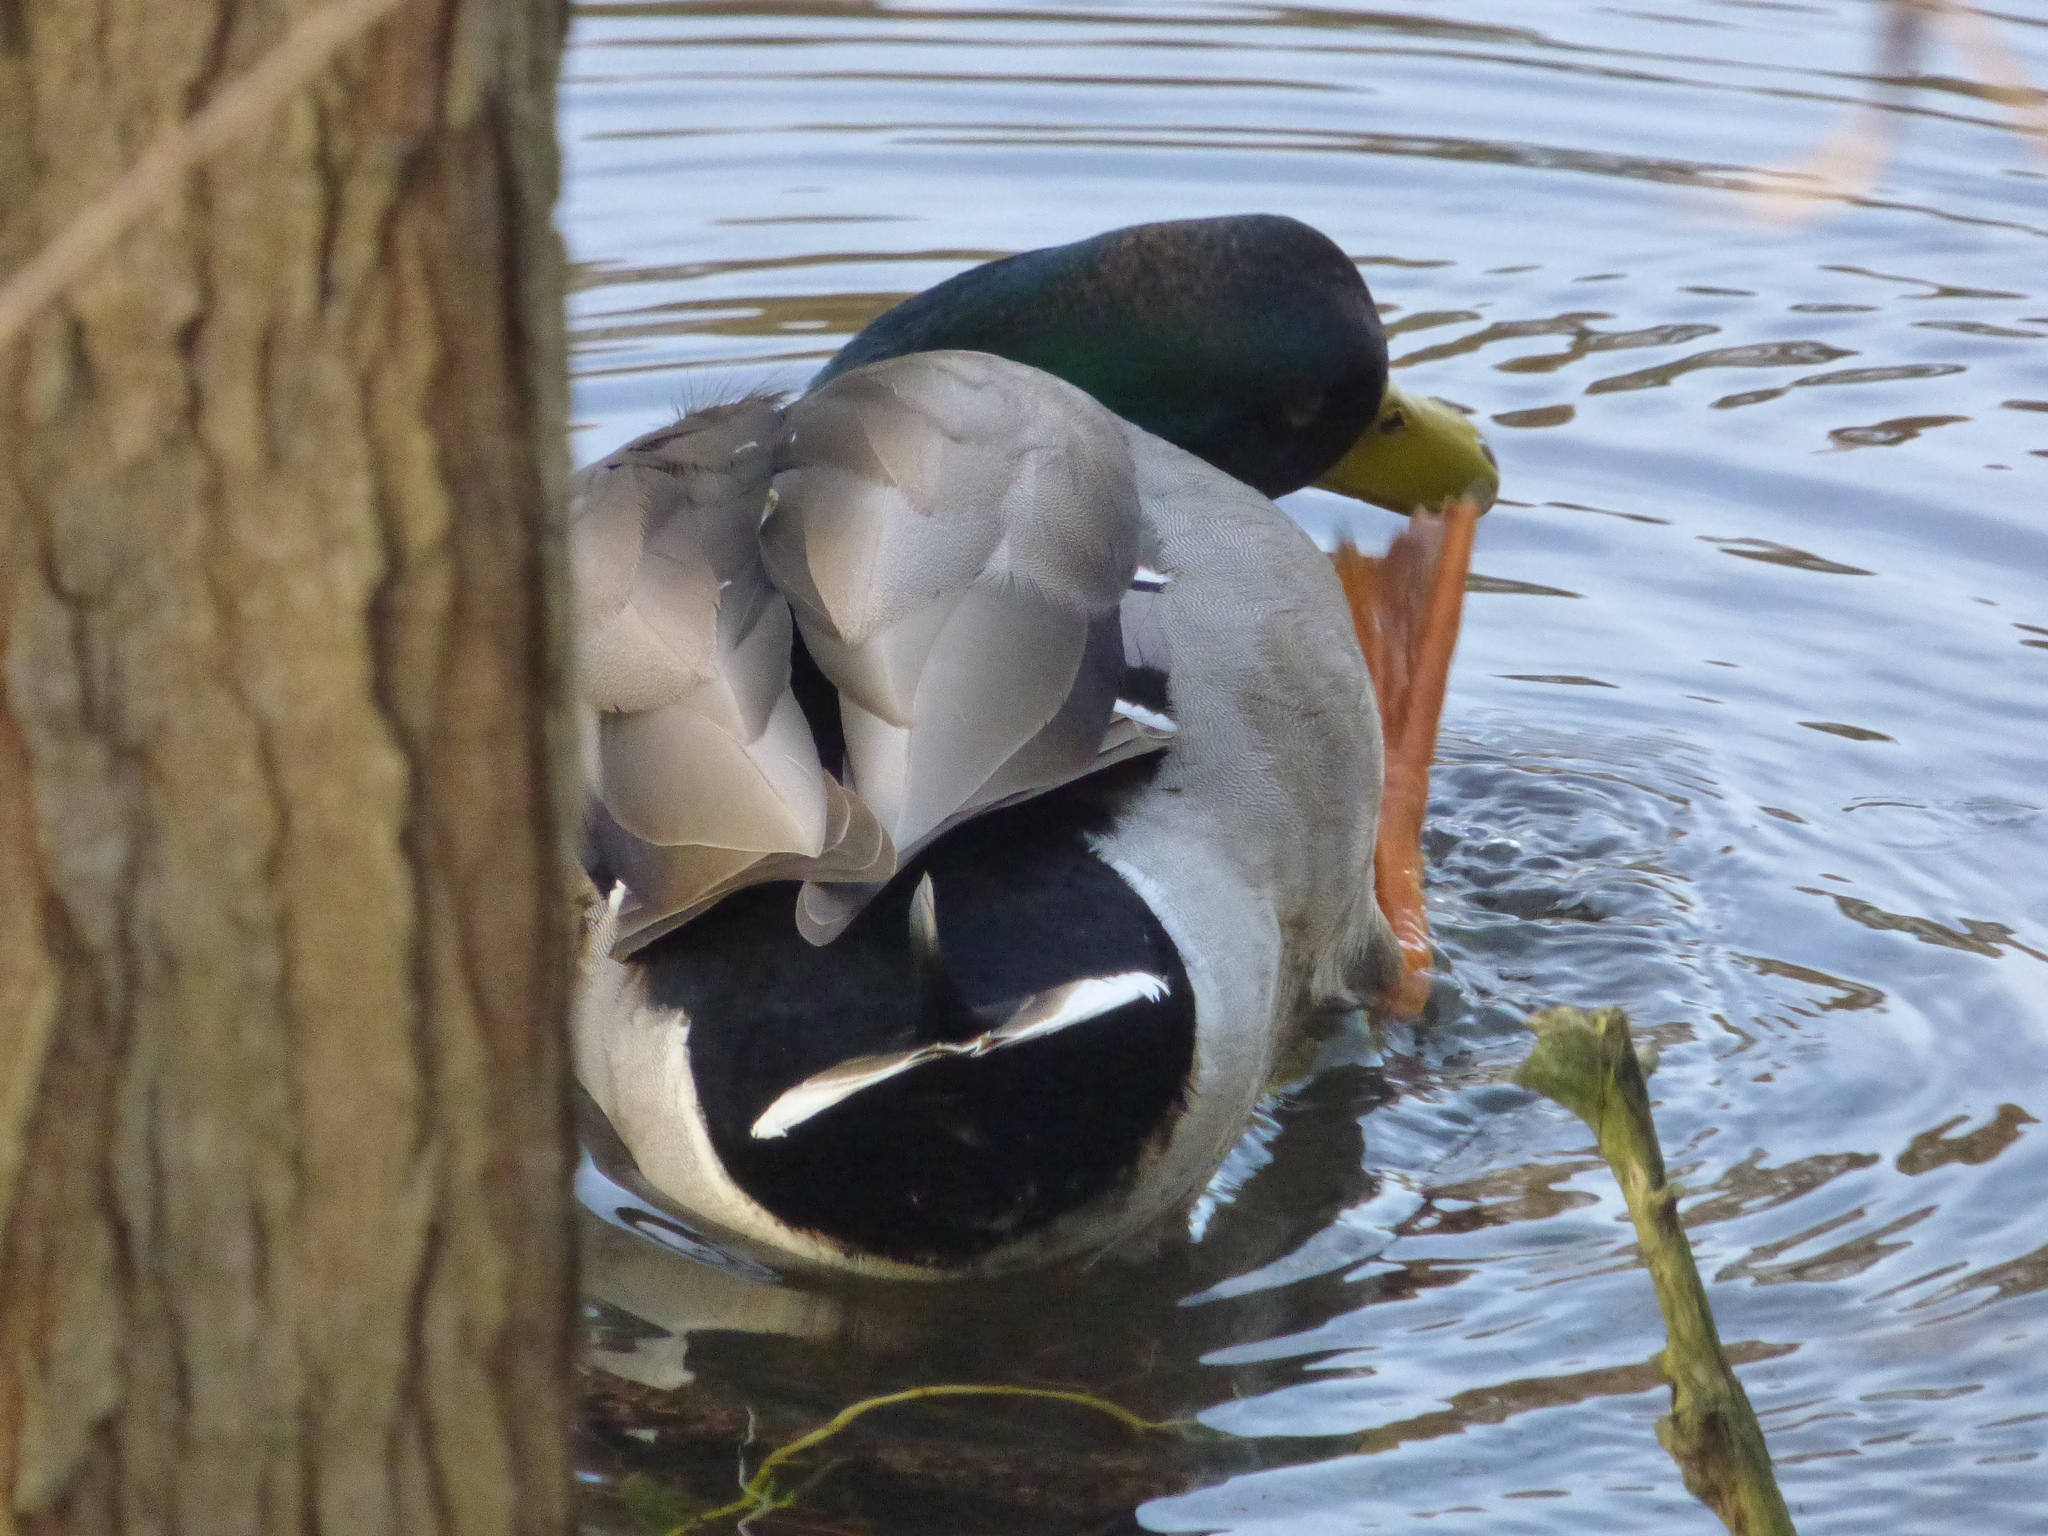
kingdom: Animalia
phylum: Chordata
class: Aves
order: Anseriformes
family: Anatidae
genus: Anas
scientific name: Anas platyrhynchos
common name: Mallard
